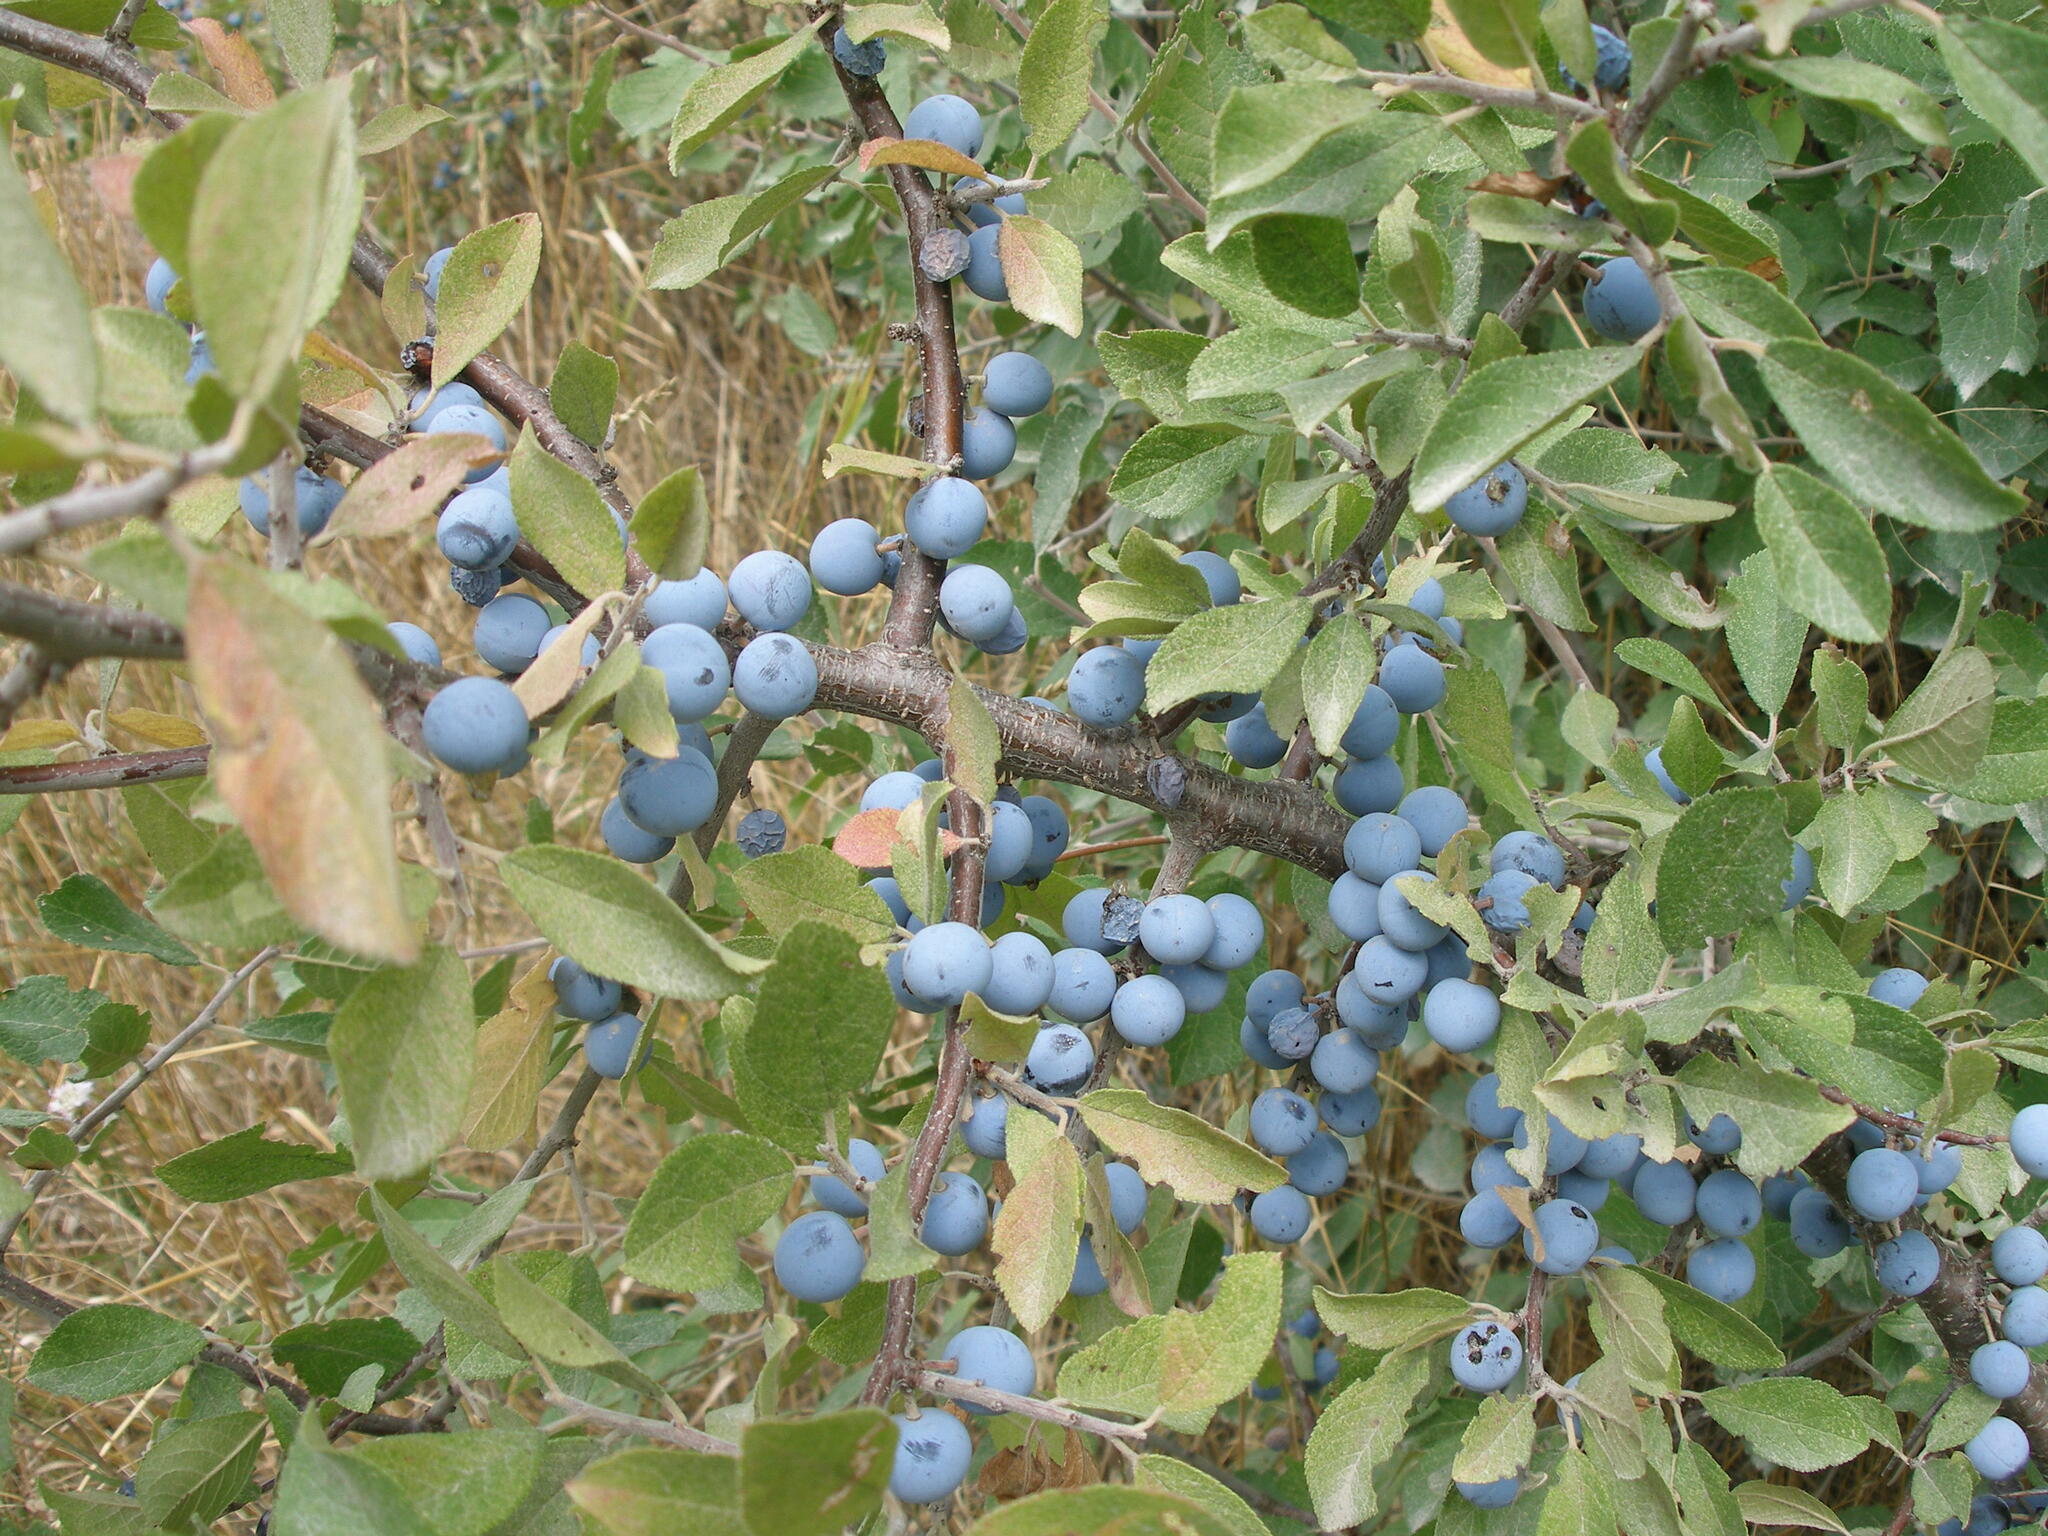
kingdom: Plantae
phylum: Tracheophyta
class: Magnoliopsida
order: Rosales
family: Rosaceae
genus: Prunus
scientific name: Prunus spinosa
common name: Blackthorn
